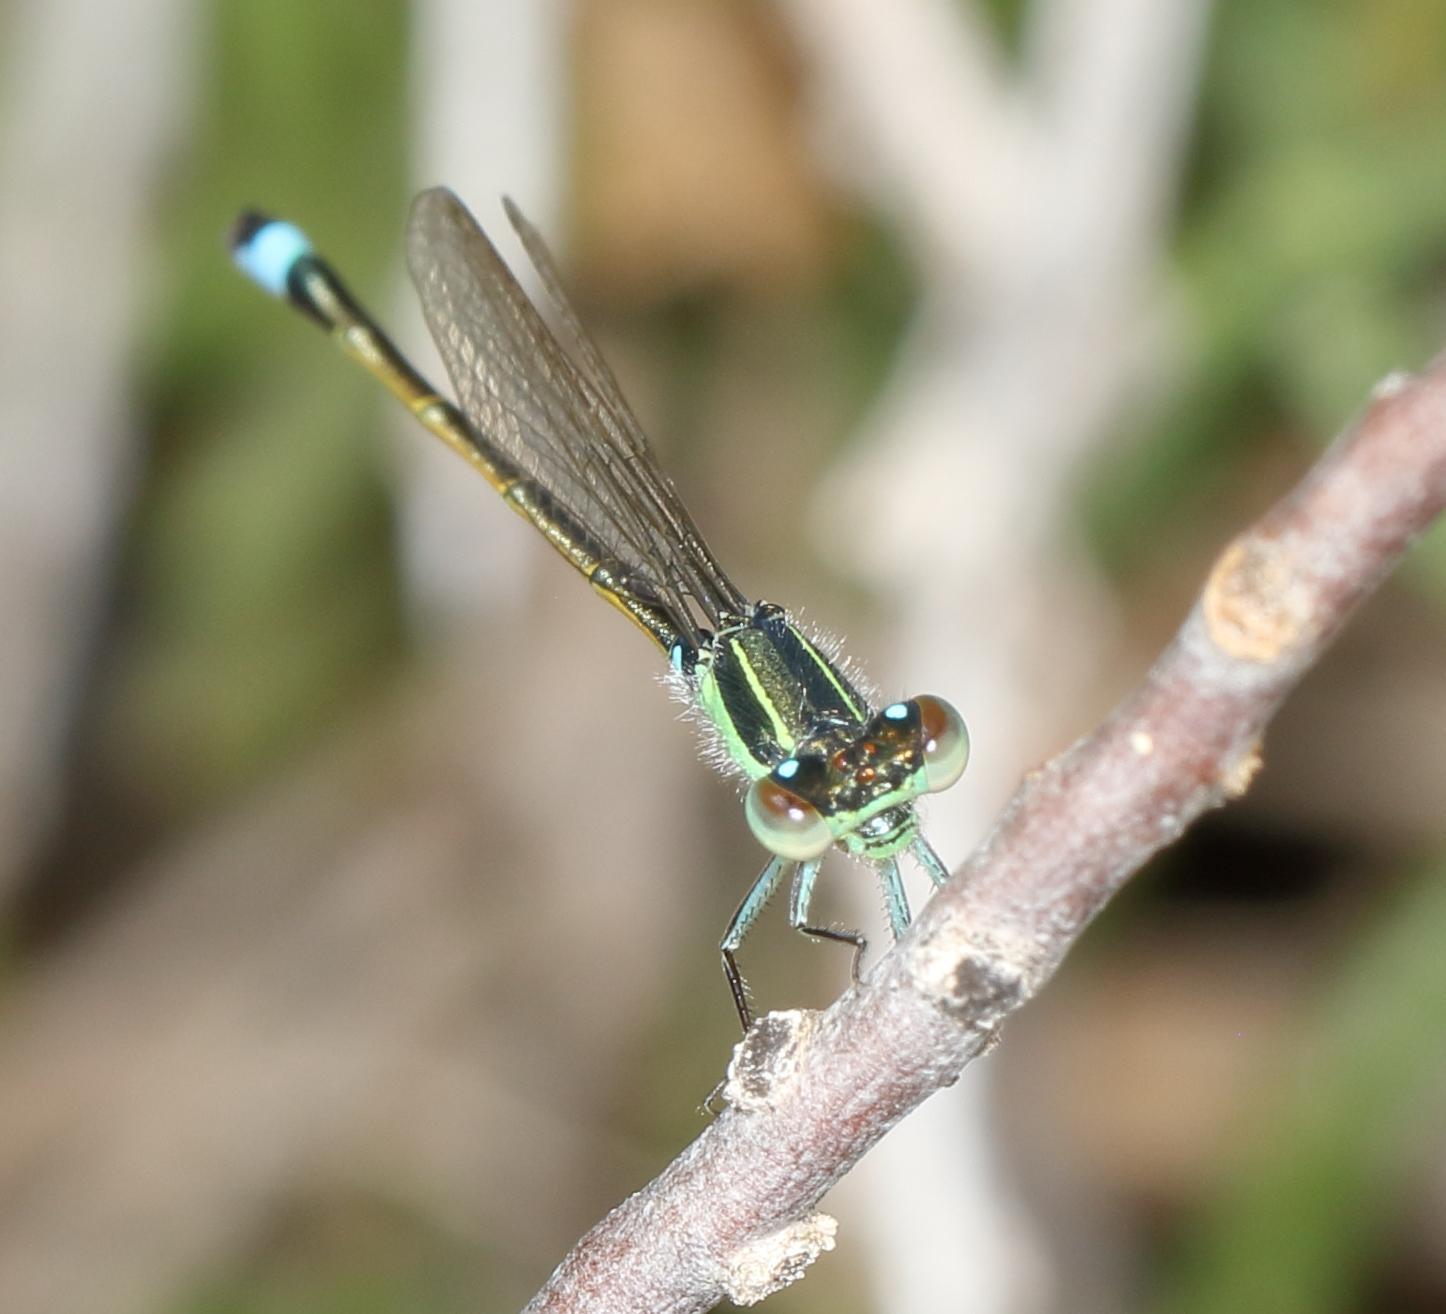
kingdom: Animalia
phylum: Arthropoda
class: Insecta
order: Odonata
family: Coenagrionidae
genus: Ischnura
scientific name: Ischnura senegalensis
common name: Tropical bluetail
